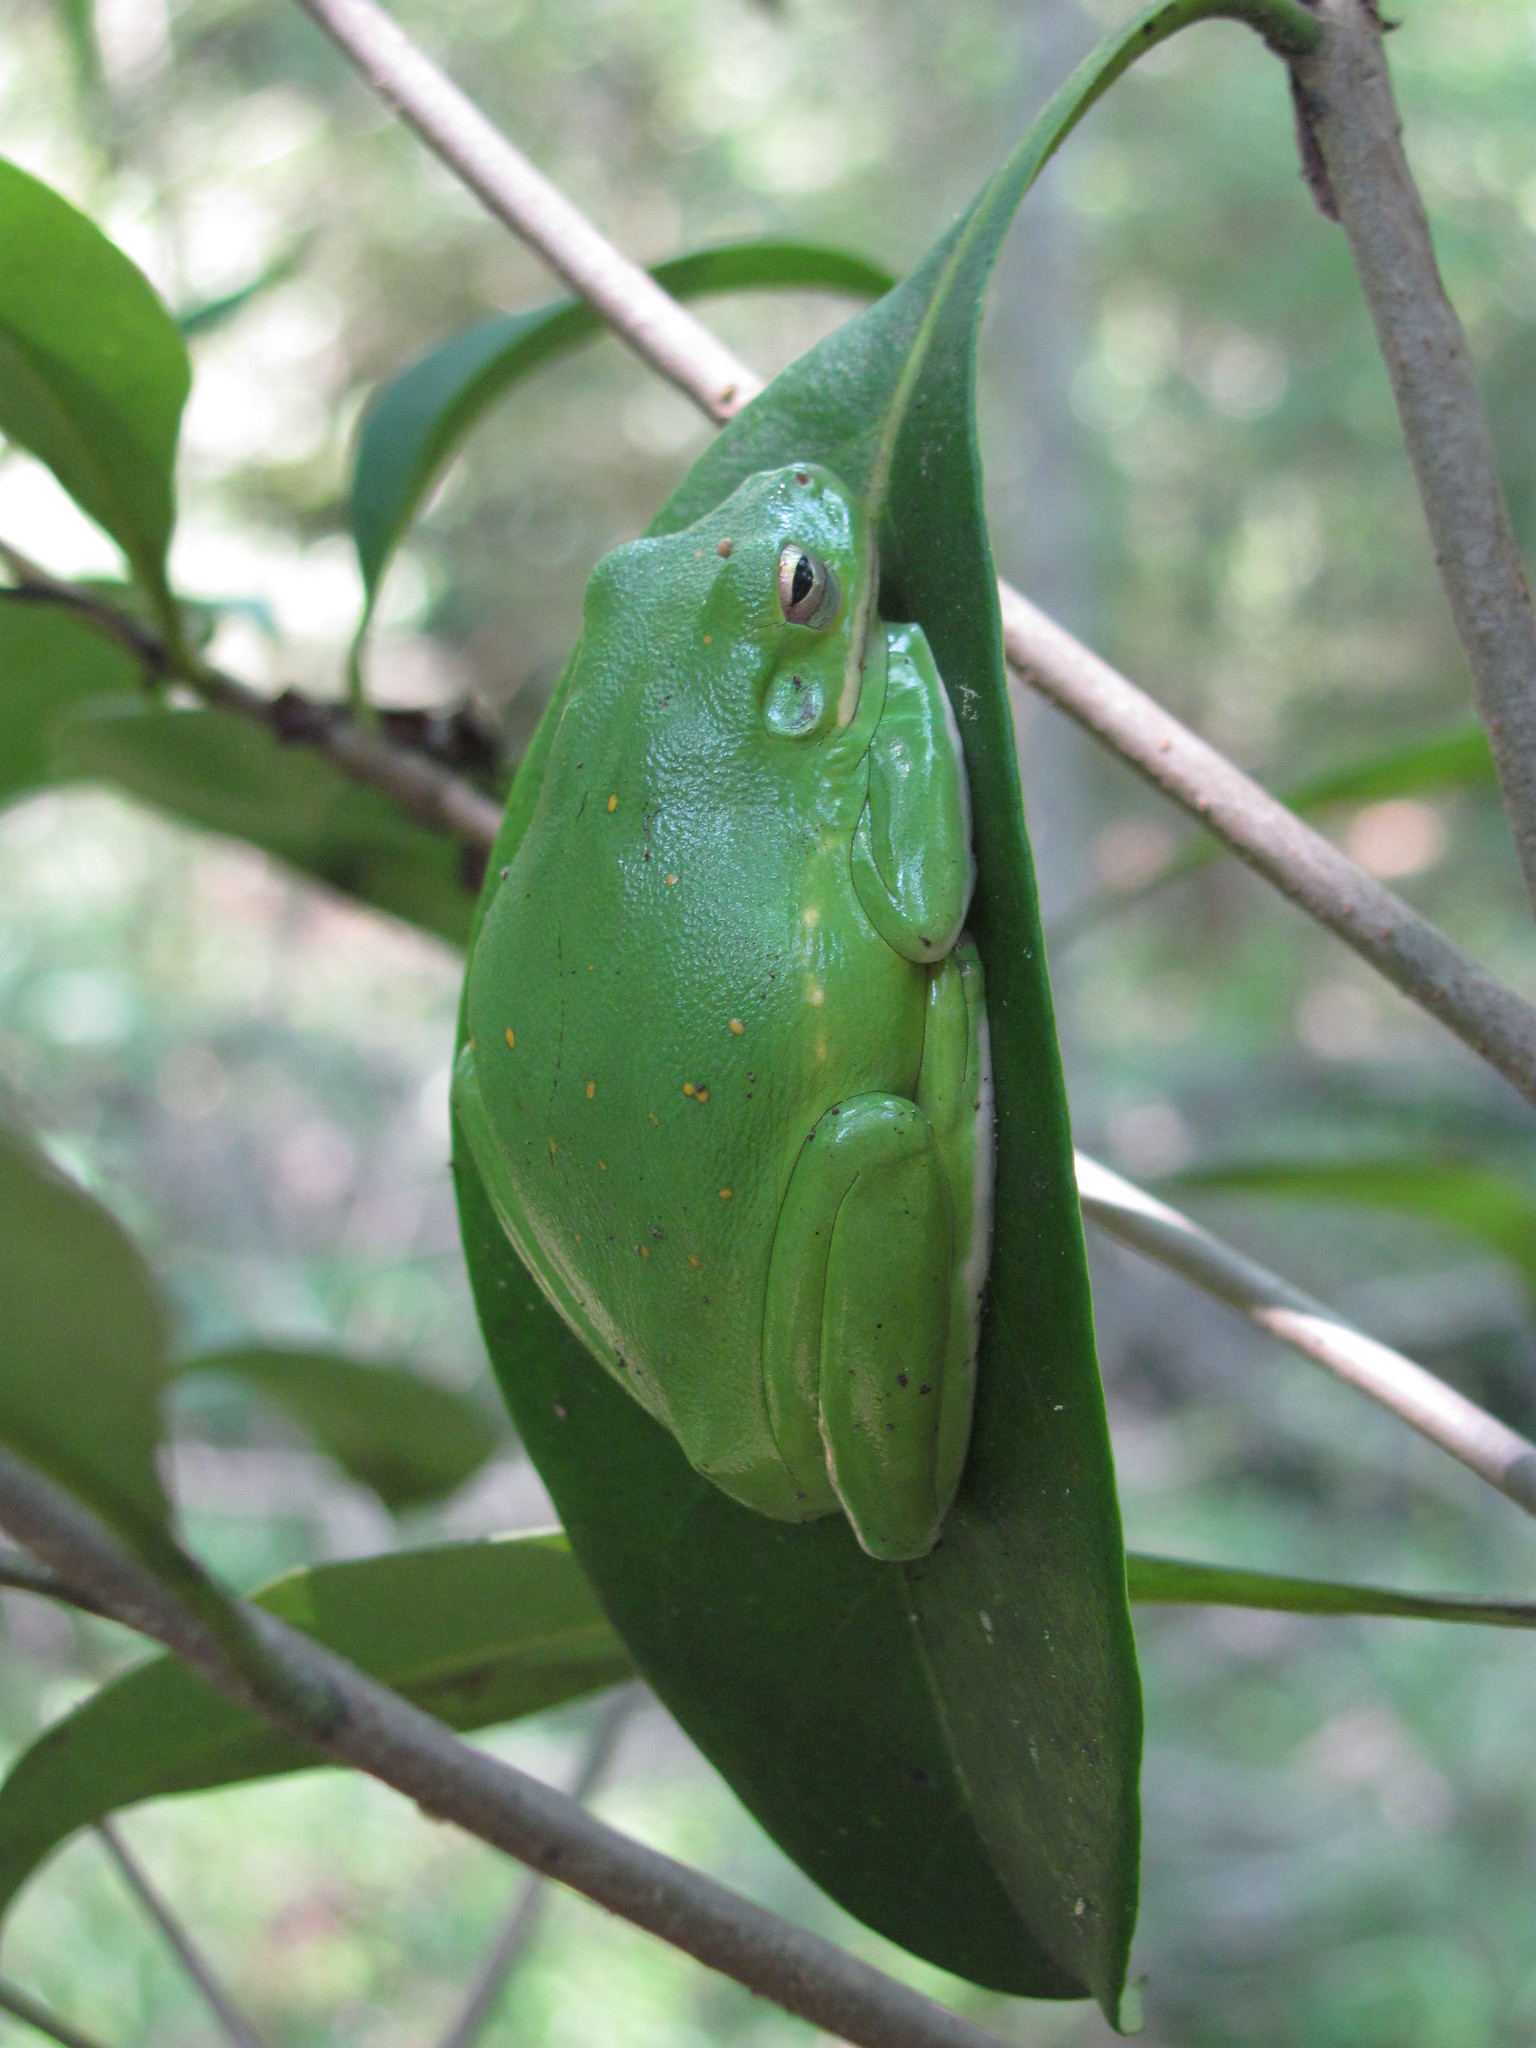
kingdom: Animalia
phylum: Chordata
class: Amphibia
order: Anura
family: Hylidae
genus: Hyla
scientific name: Hyla
